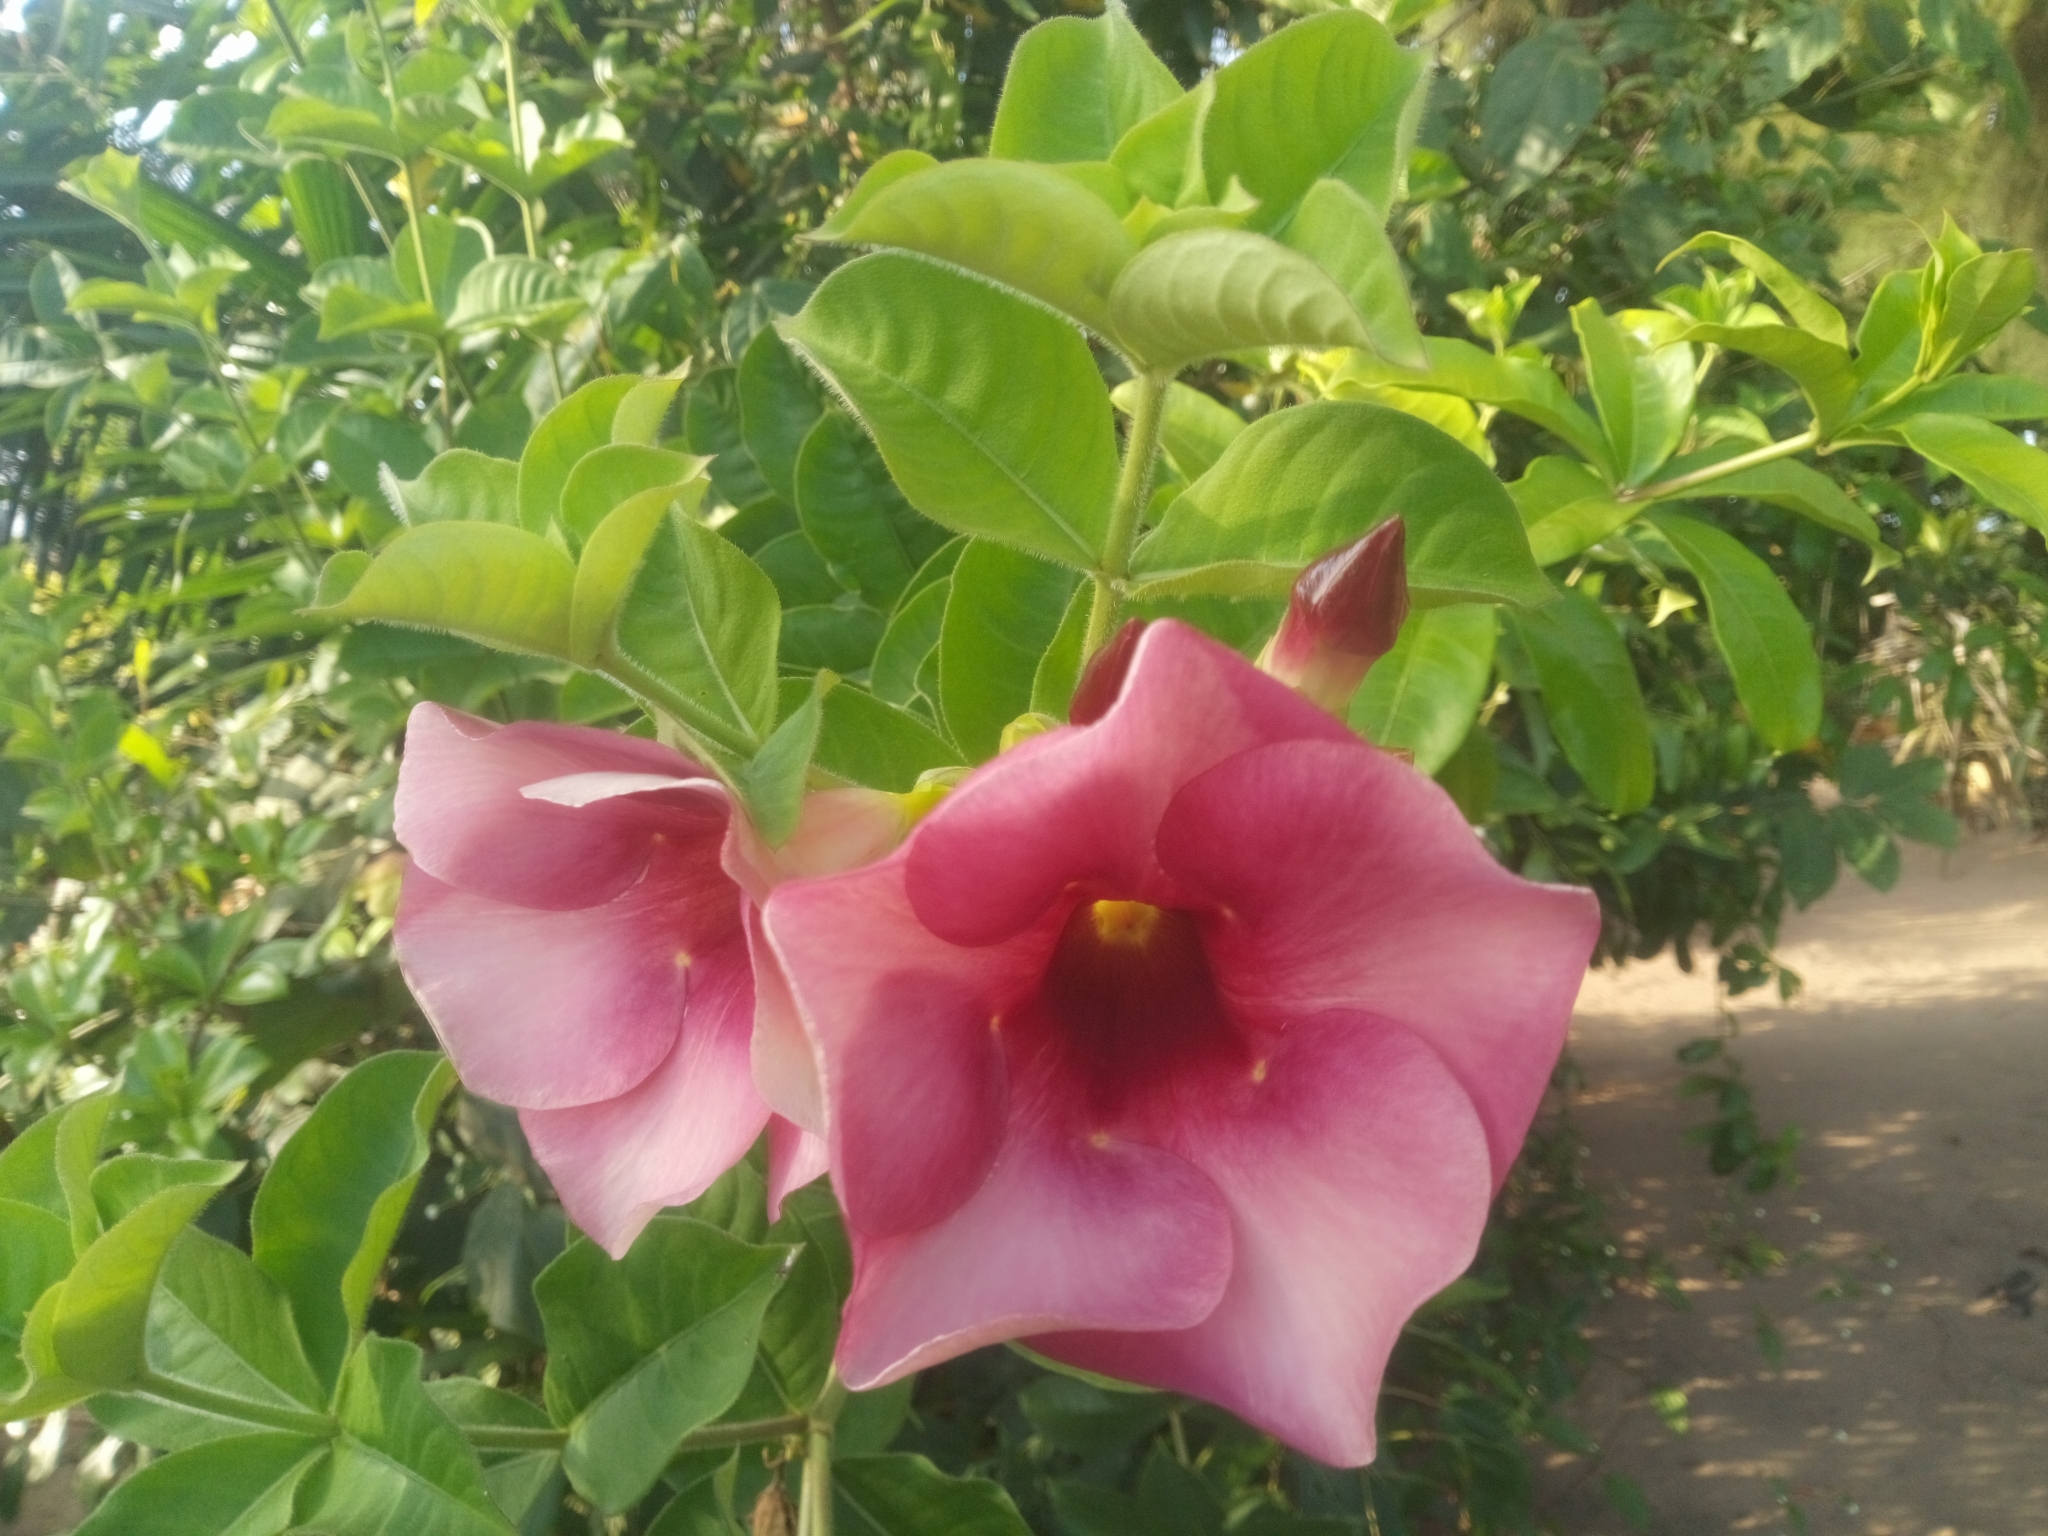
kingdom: Plantae
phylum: Tracheophyta
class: Magnoliopsida
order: Gentianales
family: Apocynaceae
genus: Allamanda
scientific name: Allamanda blanchetii
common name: Purple allamanda
